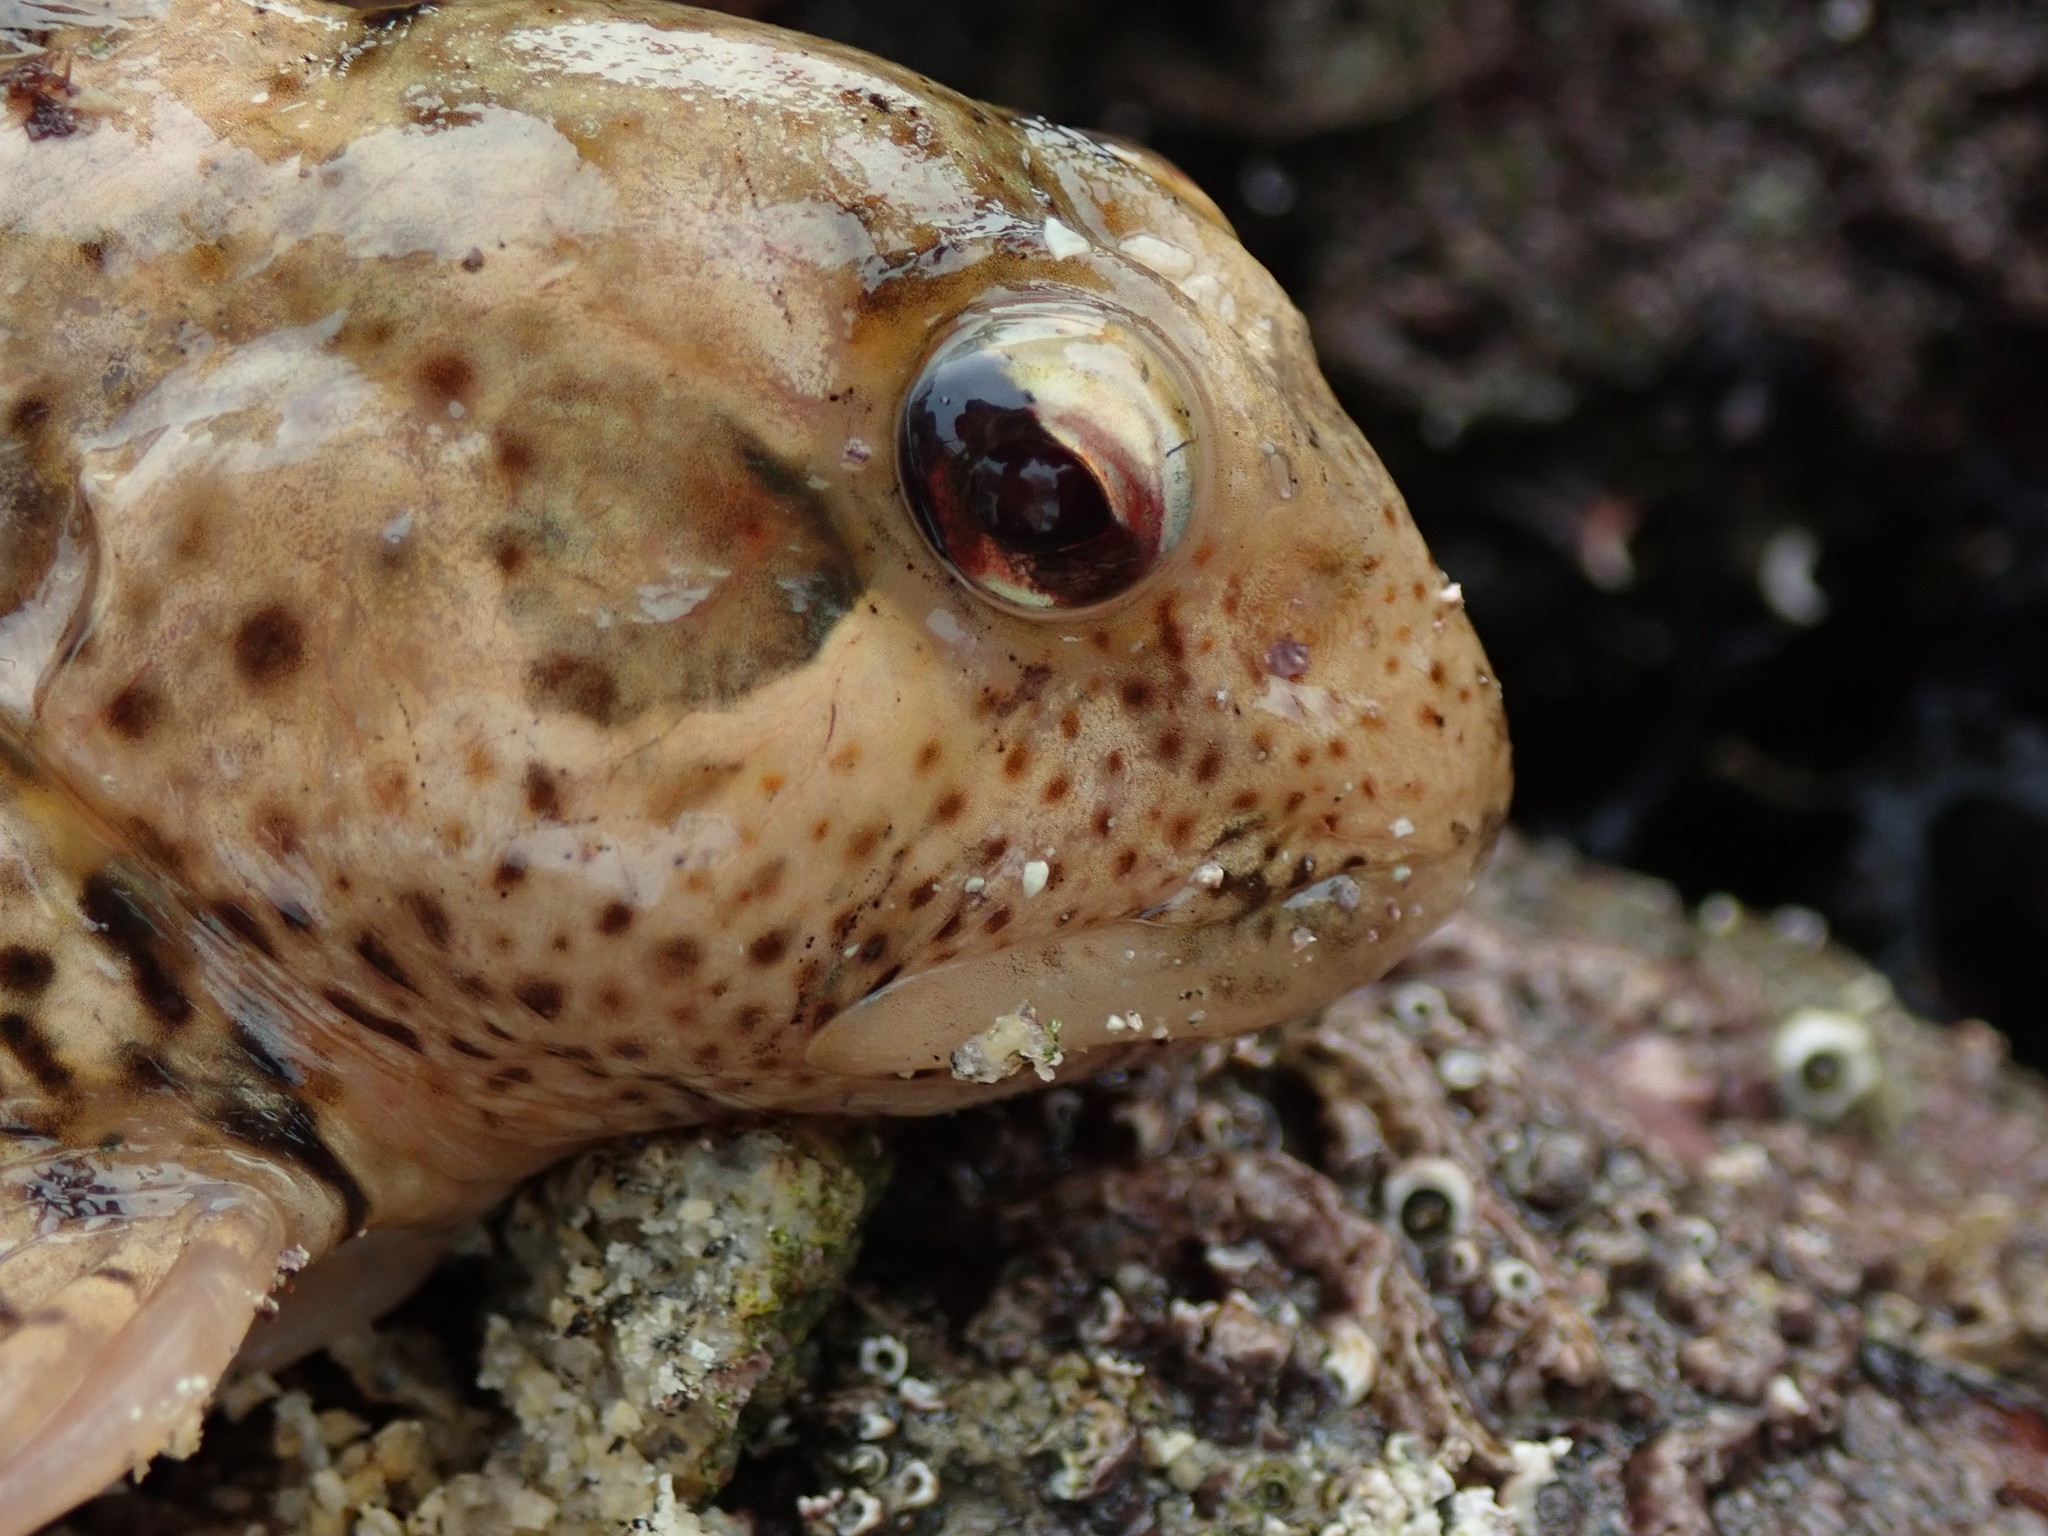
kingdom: Animalia
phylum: Chordata
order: Perciformes
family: Blenniidae
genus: Lipophrys
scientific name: Lipophrys pholis
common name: Shanny
